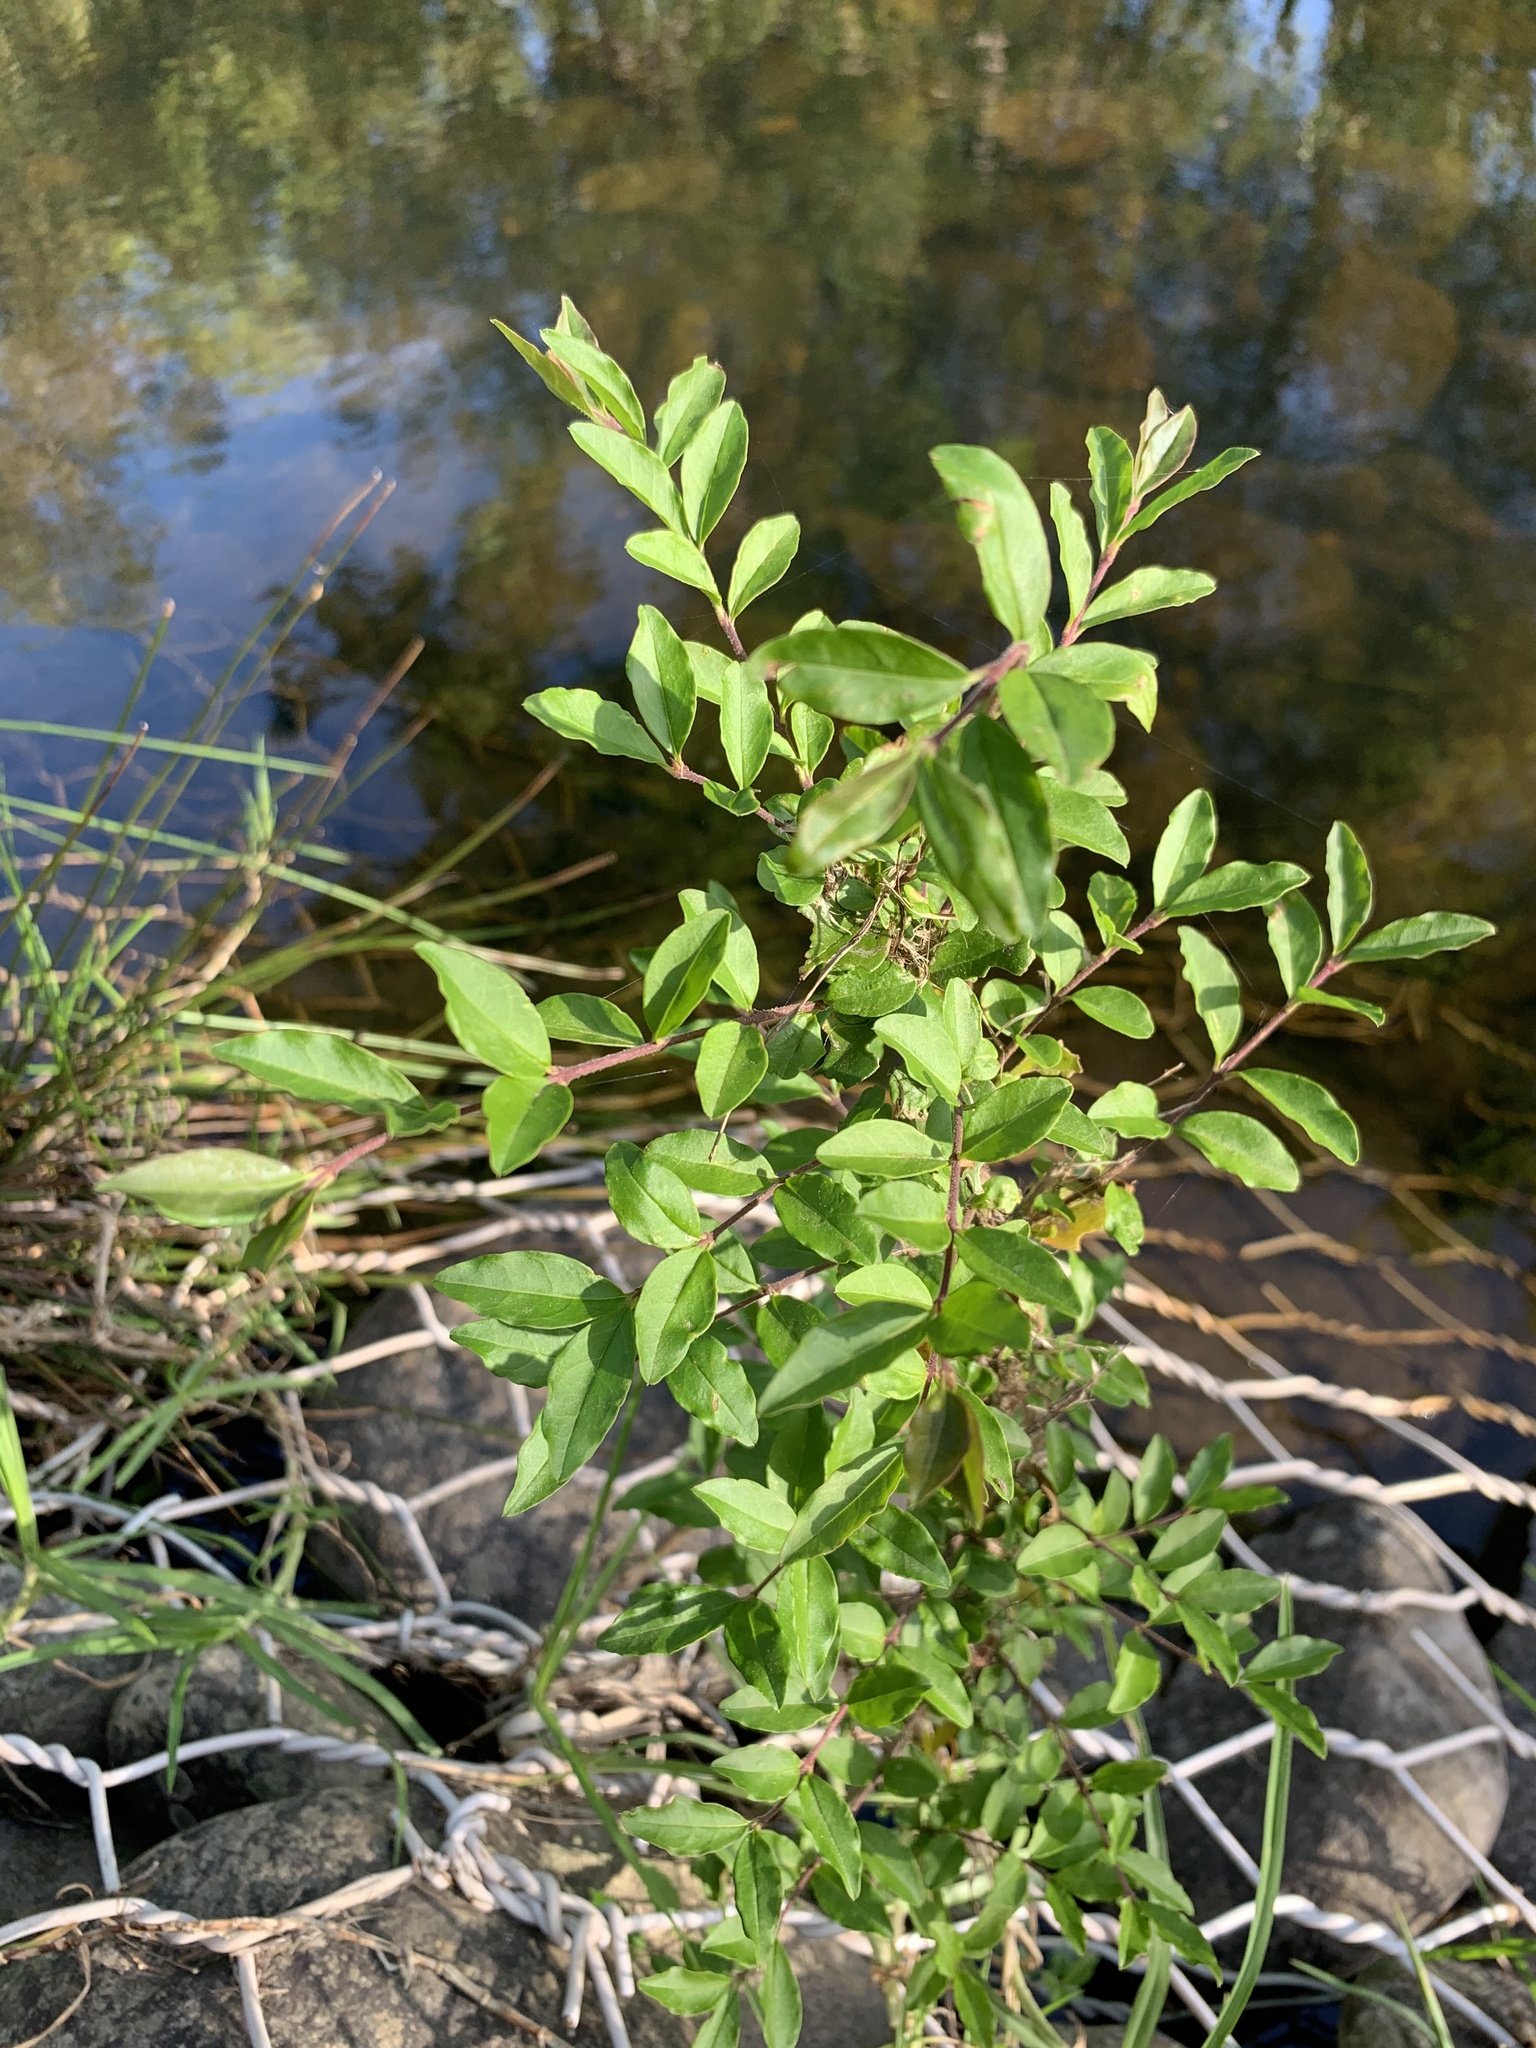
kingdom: Plantae
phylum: Tracheophyta
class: Magnoliopsida
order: Lamiales
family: Oleaceae
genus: Ligustrum
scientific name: Ligustrum sinense
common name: Chinese privet
